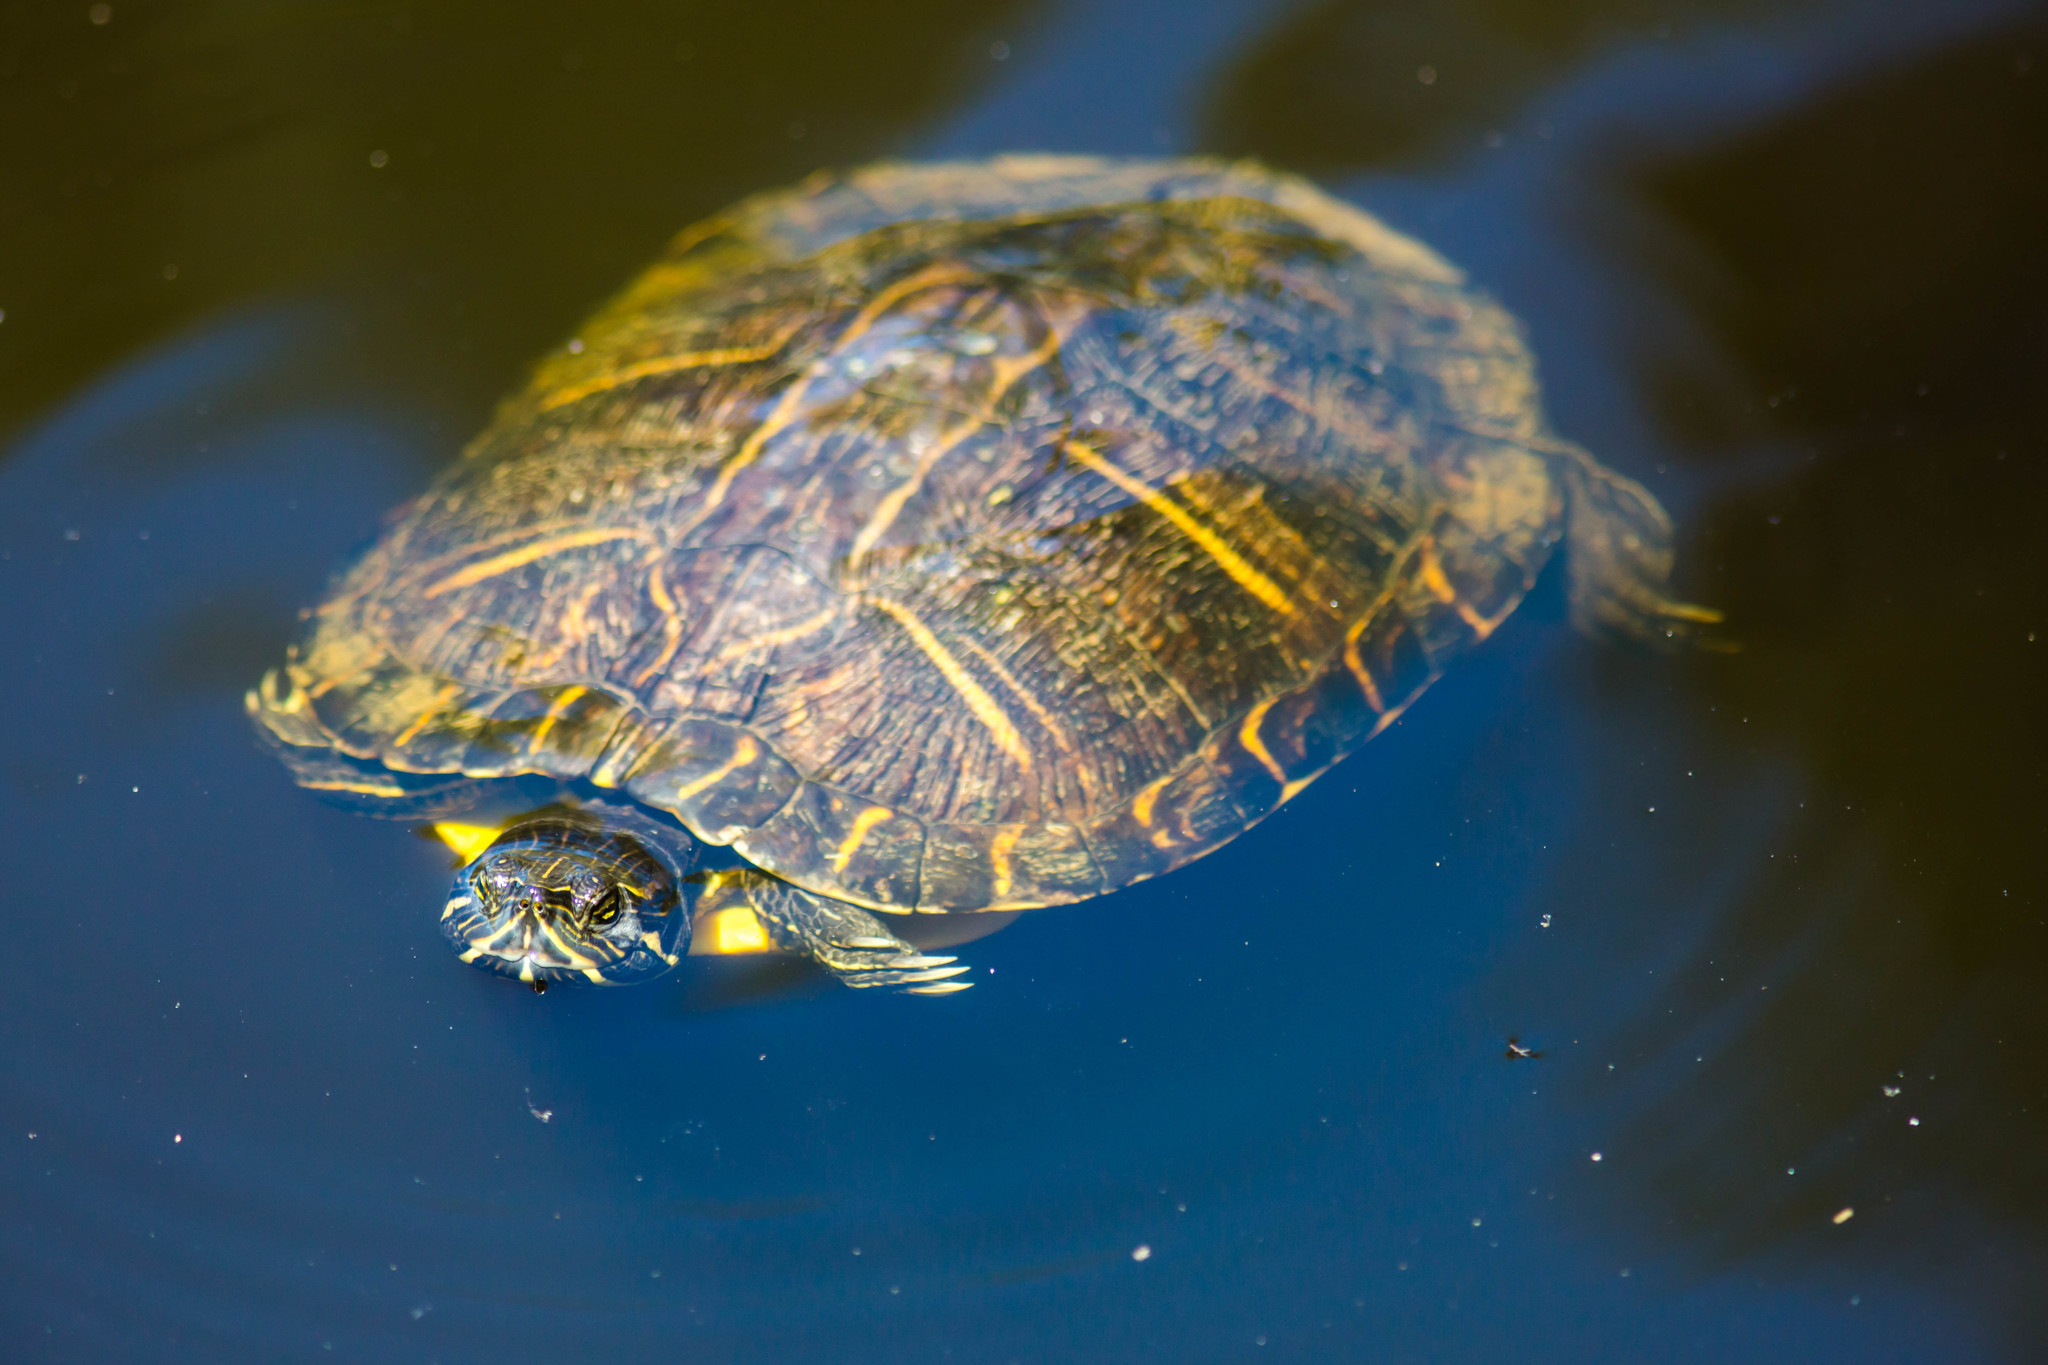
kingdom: Animalia
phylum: Chordata
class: Testudines
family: Emydidae
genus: Trachemys
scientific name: Trachemys scripta
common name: Slider
